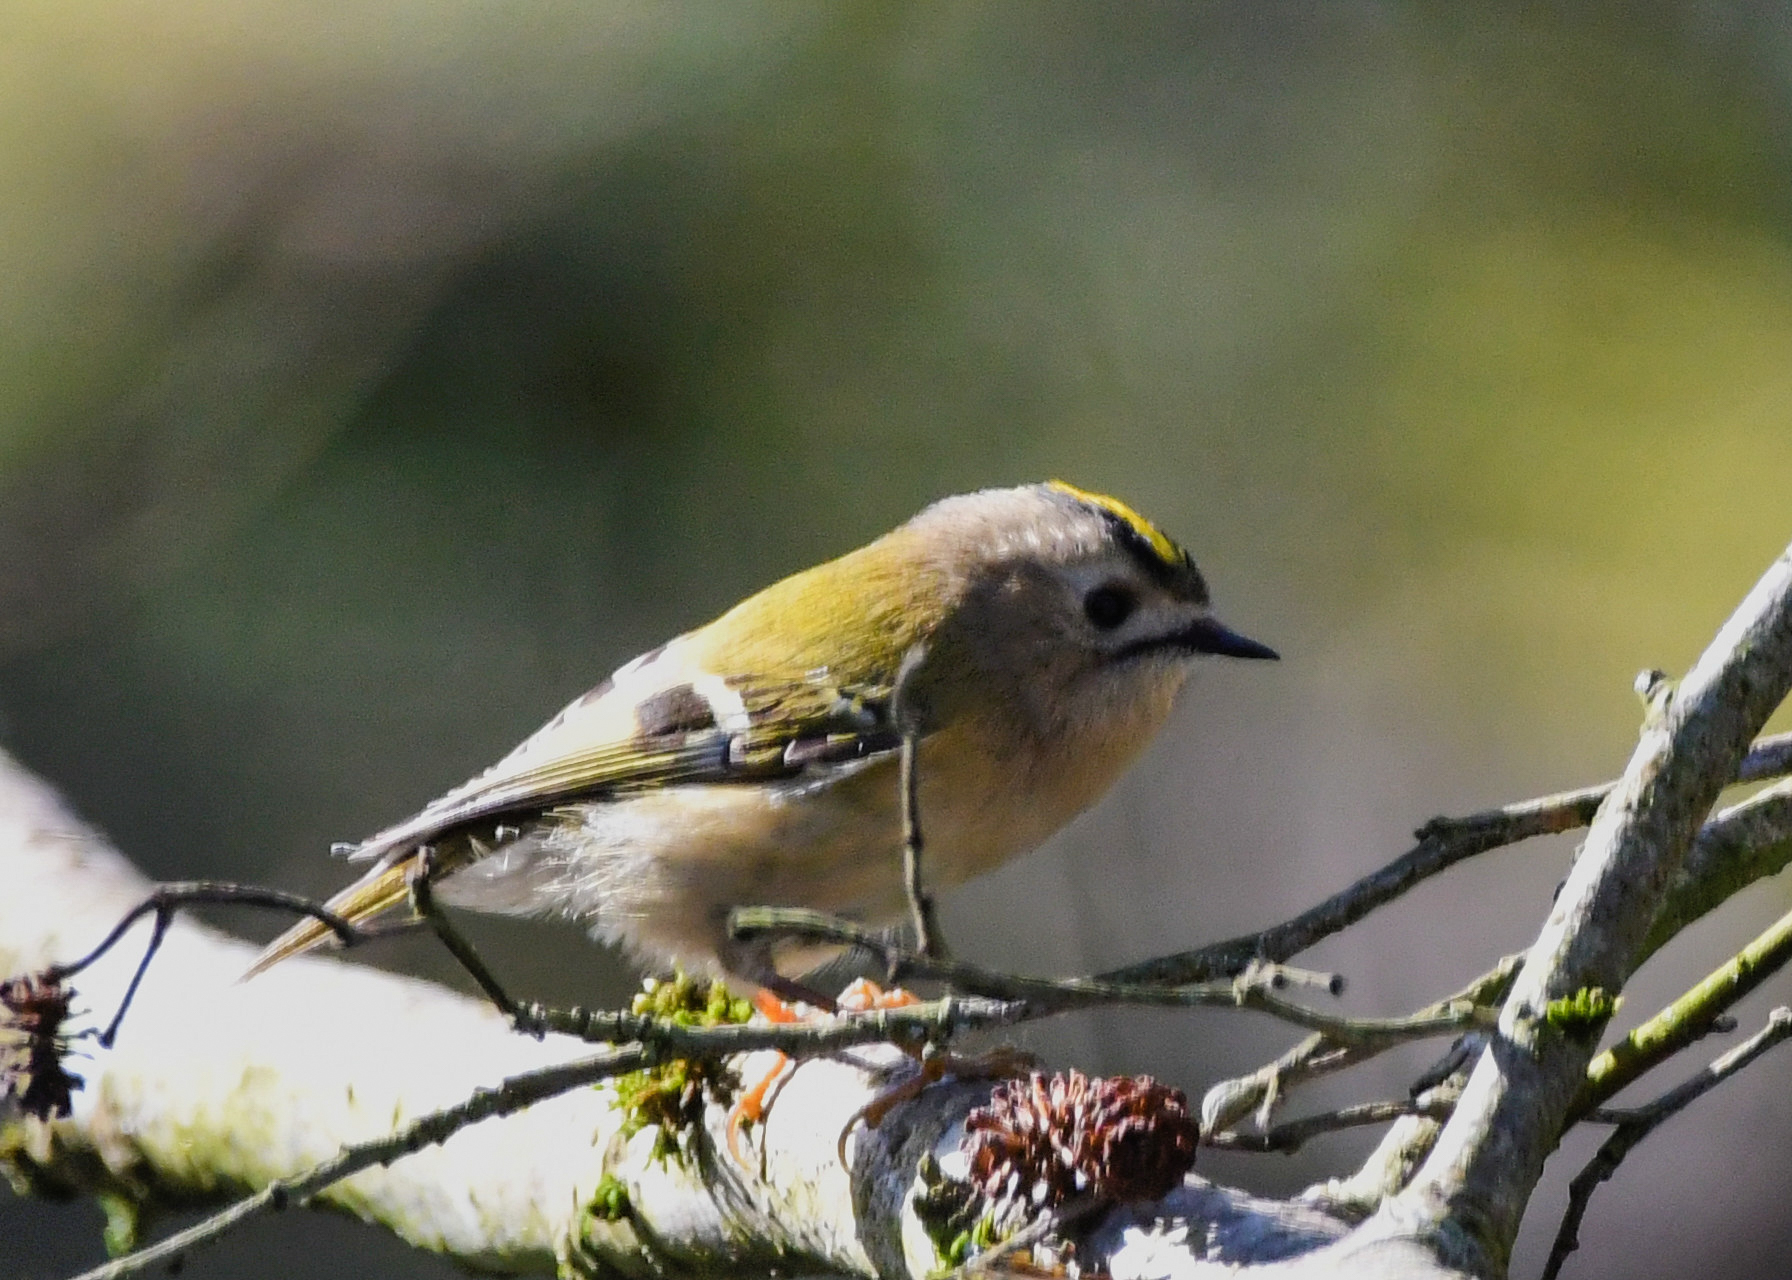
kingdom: Animalia
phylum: Chordata
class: Aves
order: Passeriformes
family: Regulidae
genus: Regulus
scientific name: Regulus regulus
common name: Goldcrest
